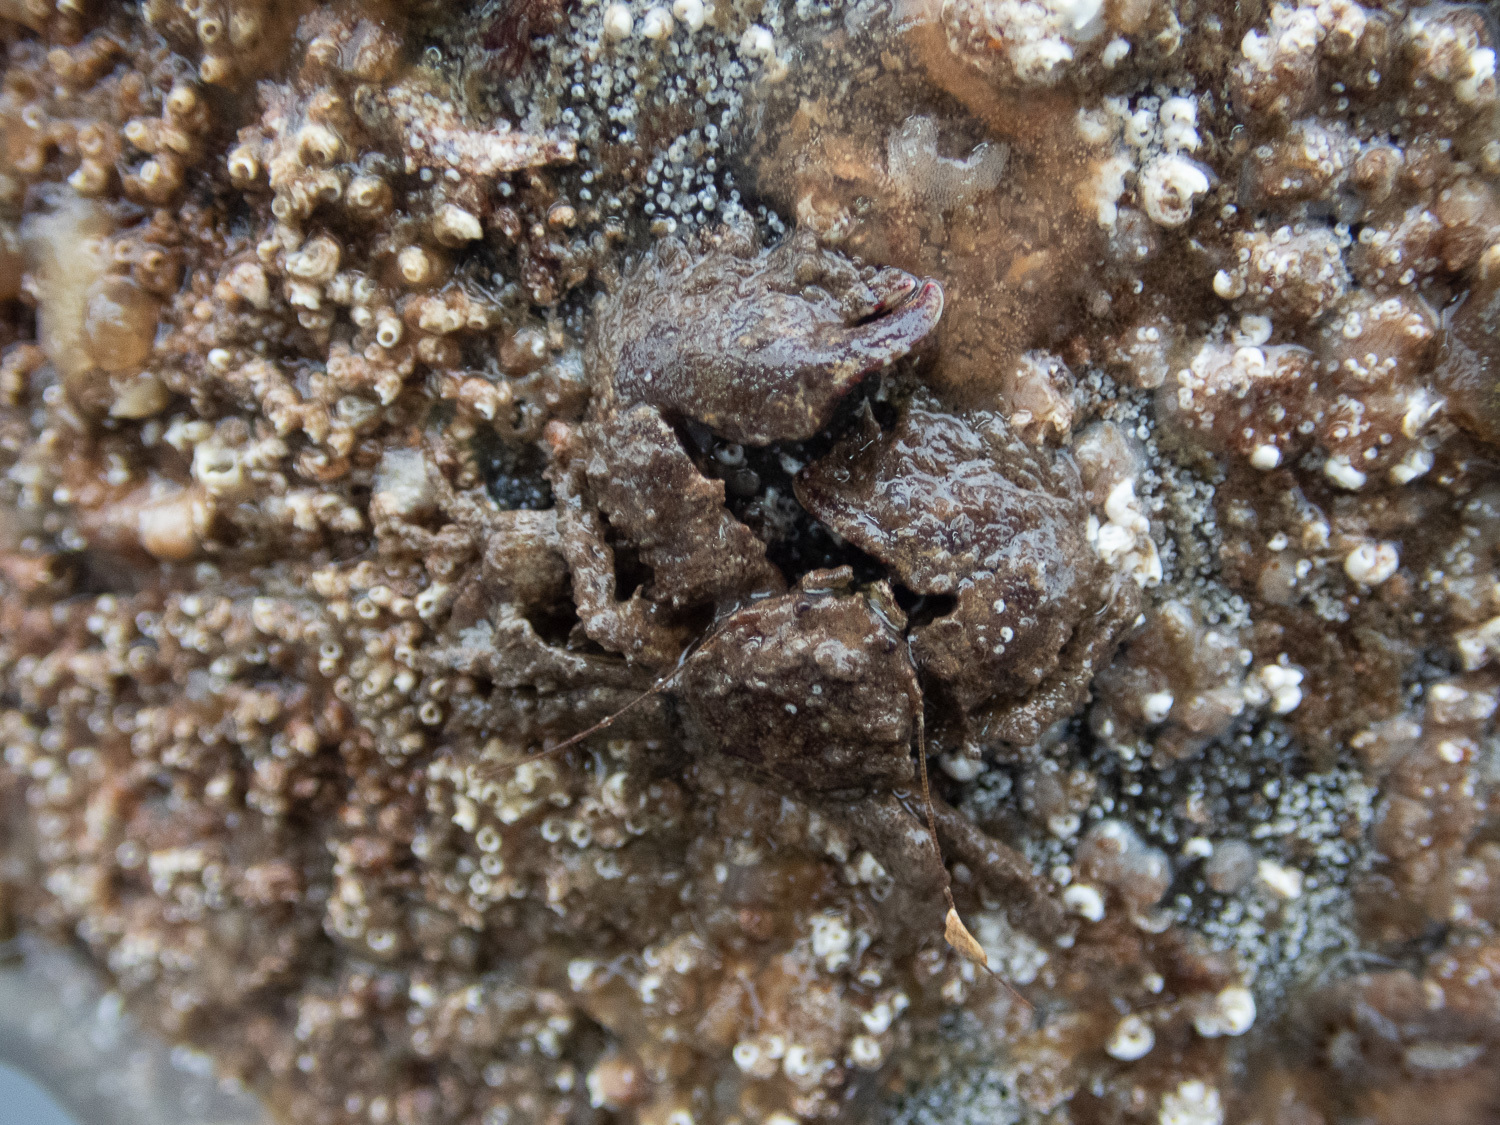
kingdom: Animalia
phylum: Arthropoda
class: Malacostraca
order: Decapoda
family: Porcellanidae
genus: Porcellana
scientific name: Porcellana platycheles
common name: Porcelain crab
